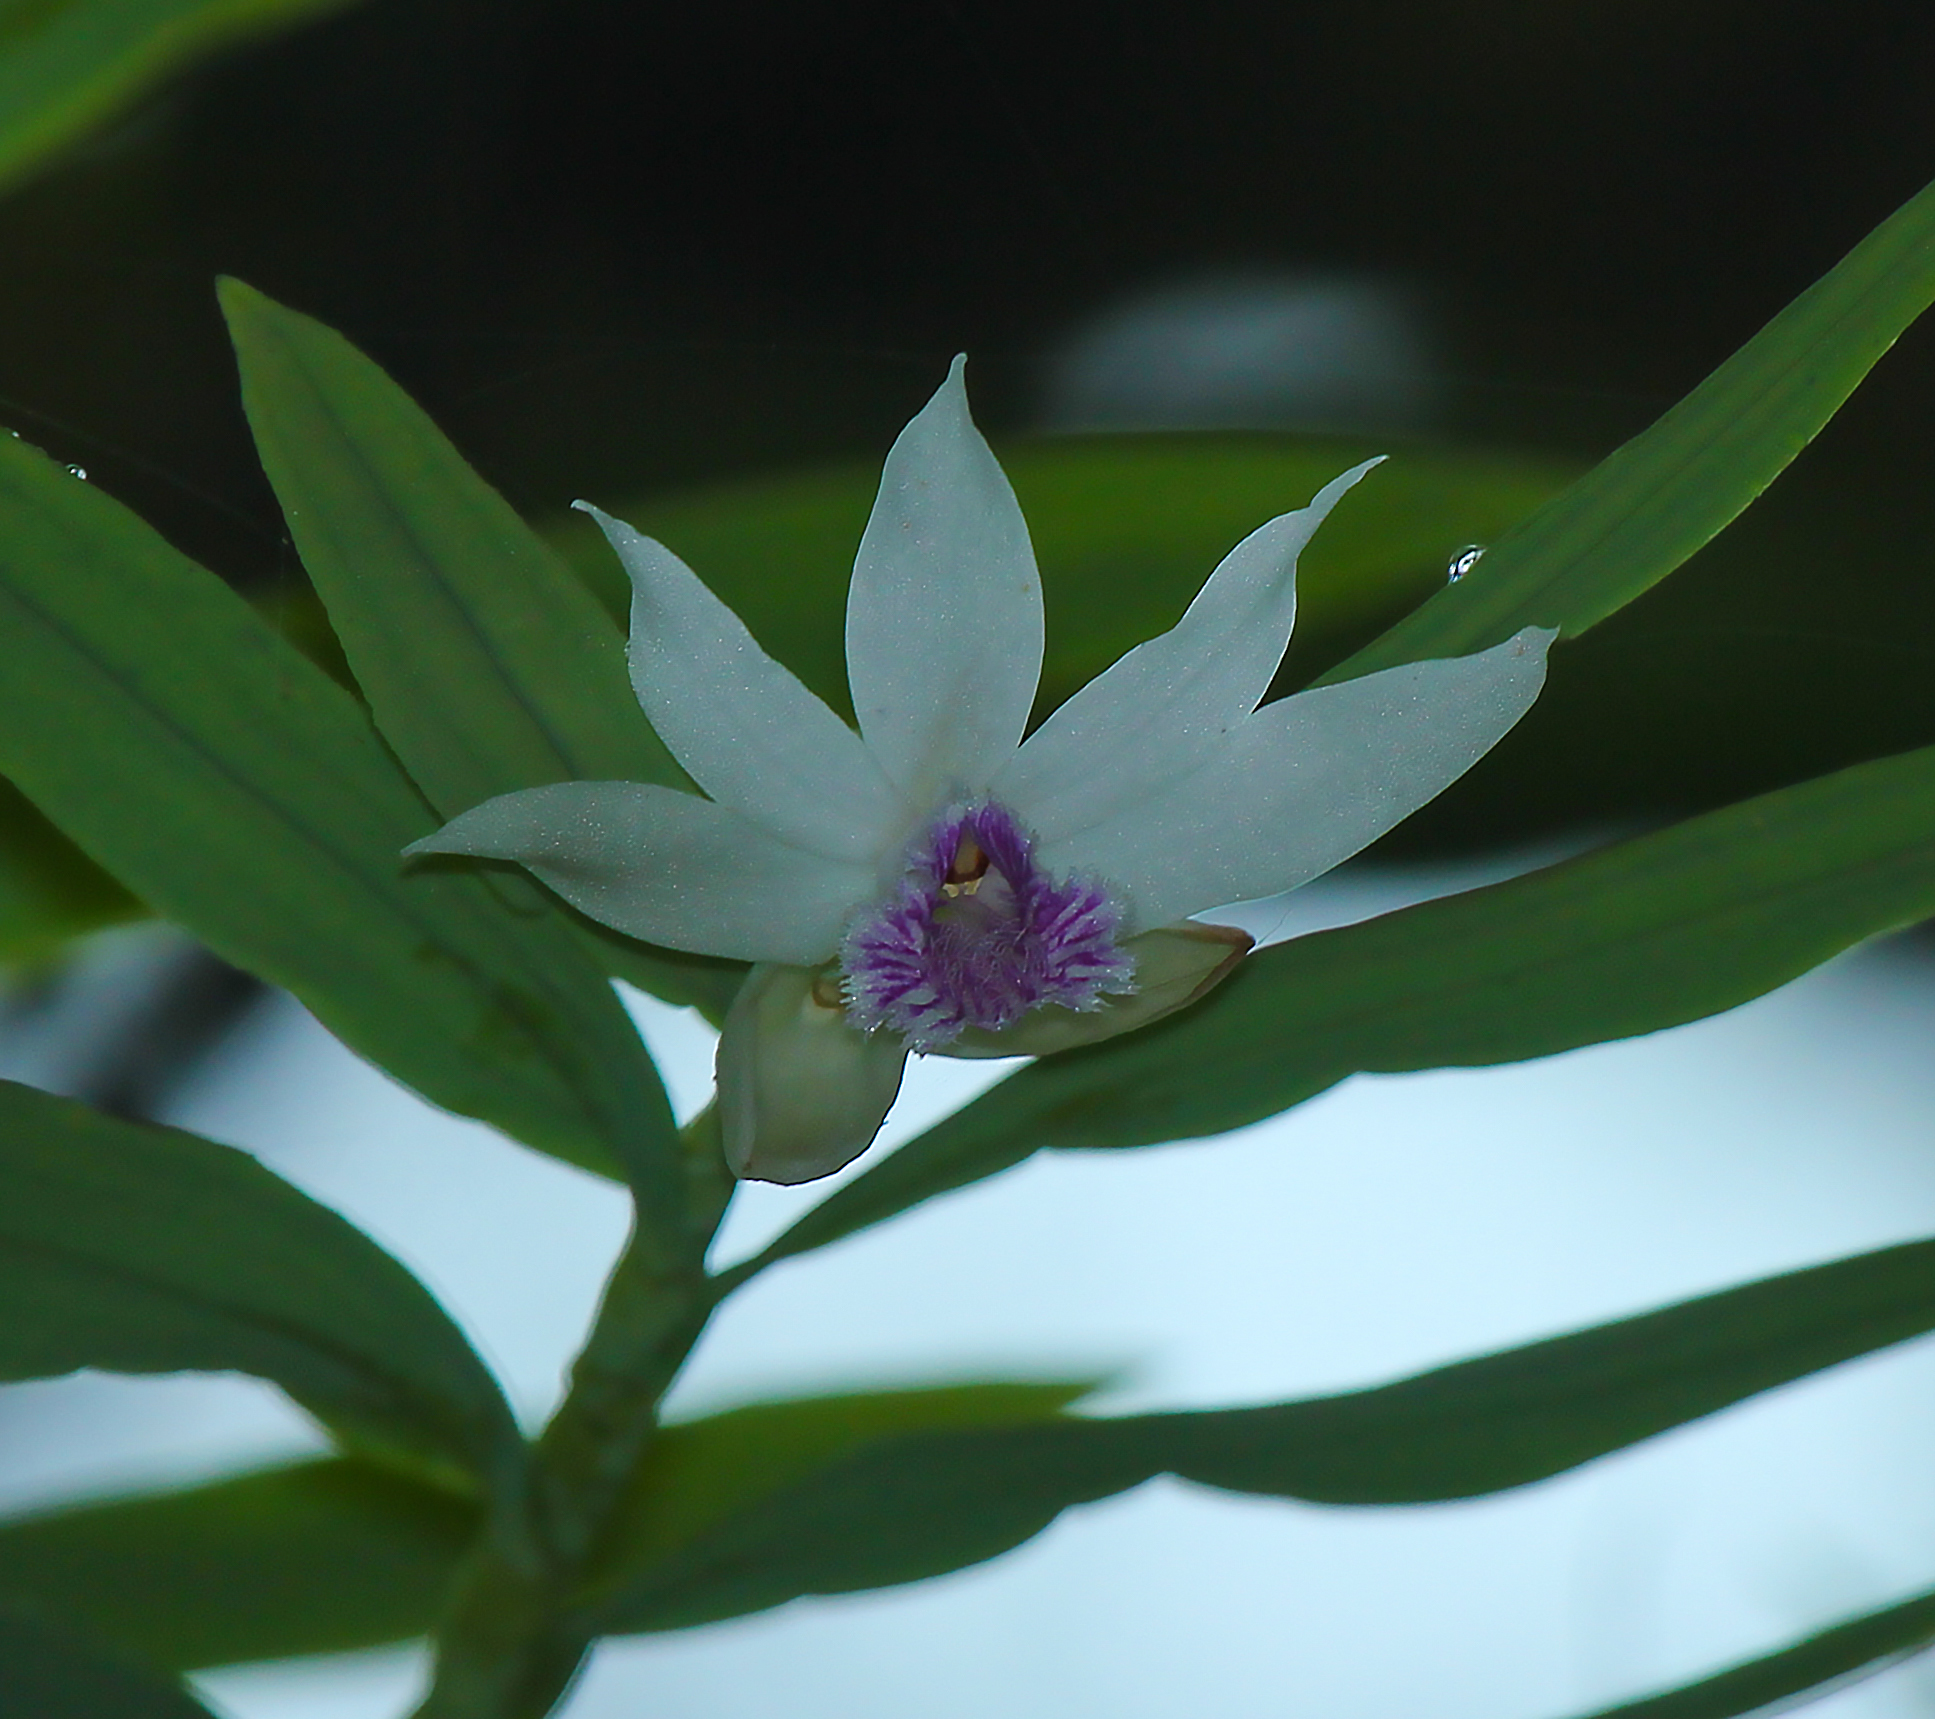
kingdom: Plantae
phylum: Tracheophyta
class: Liliopsida
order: Asparagales
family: Orchidaceae
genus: Thunia
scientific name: Thunia alba
